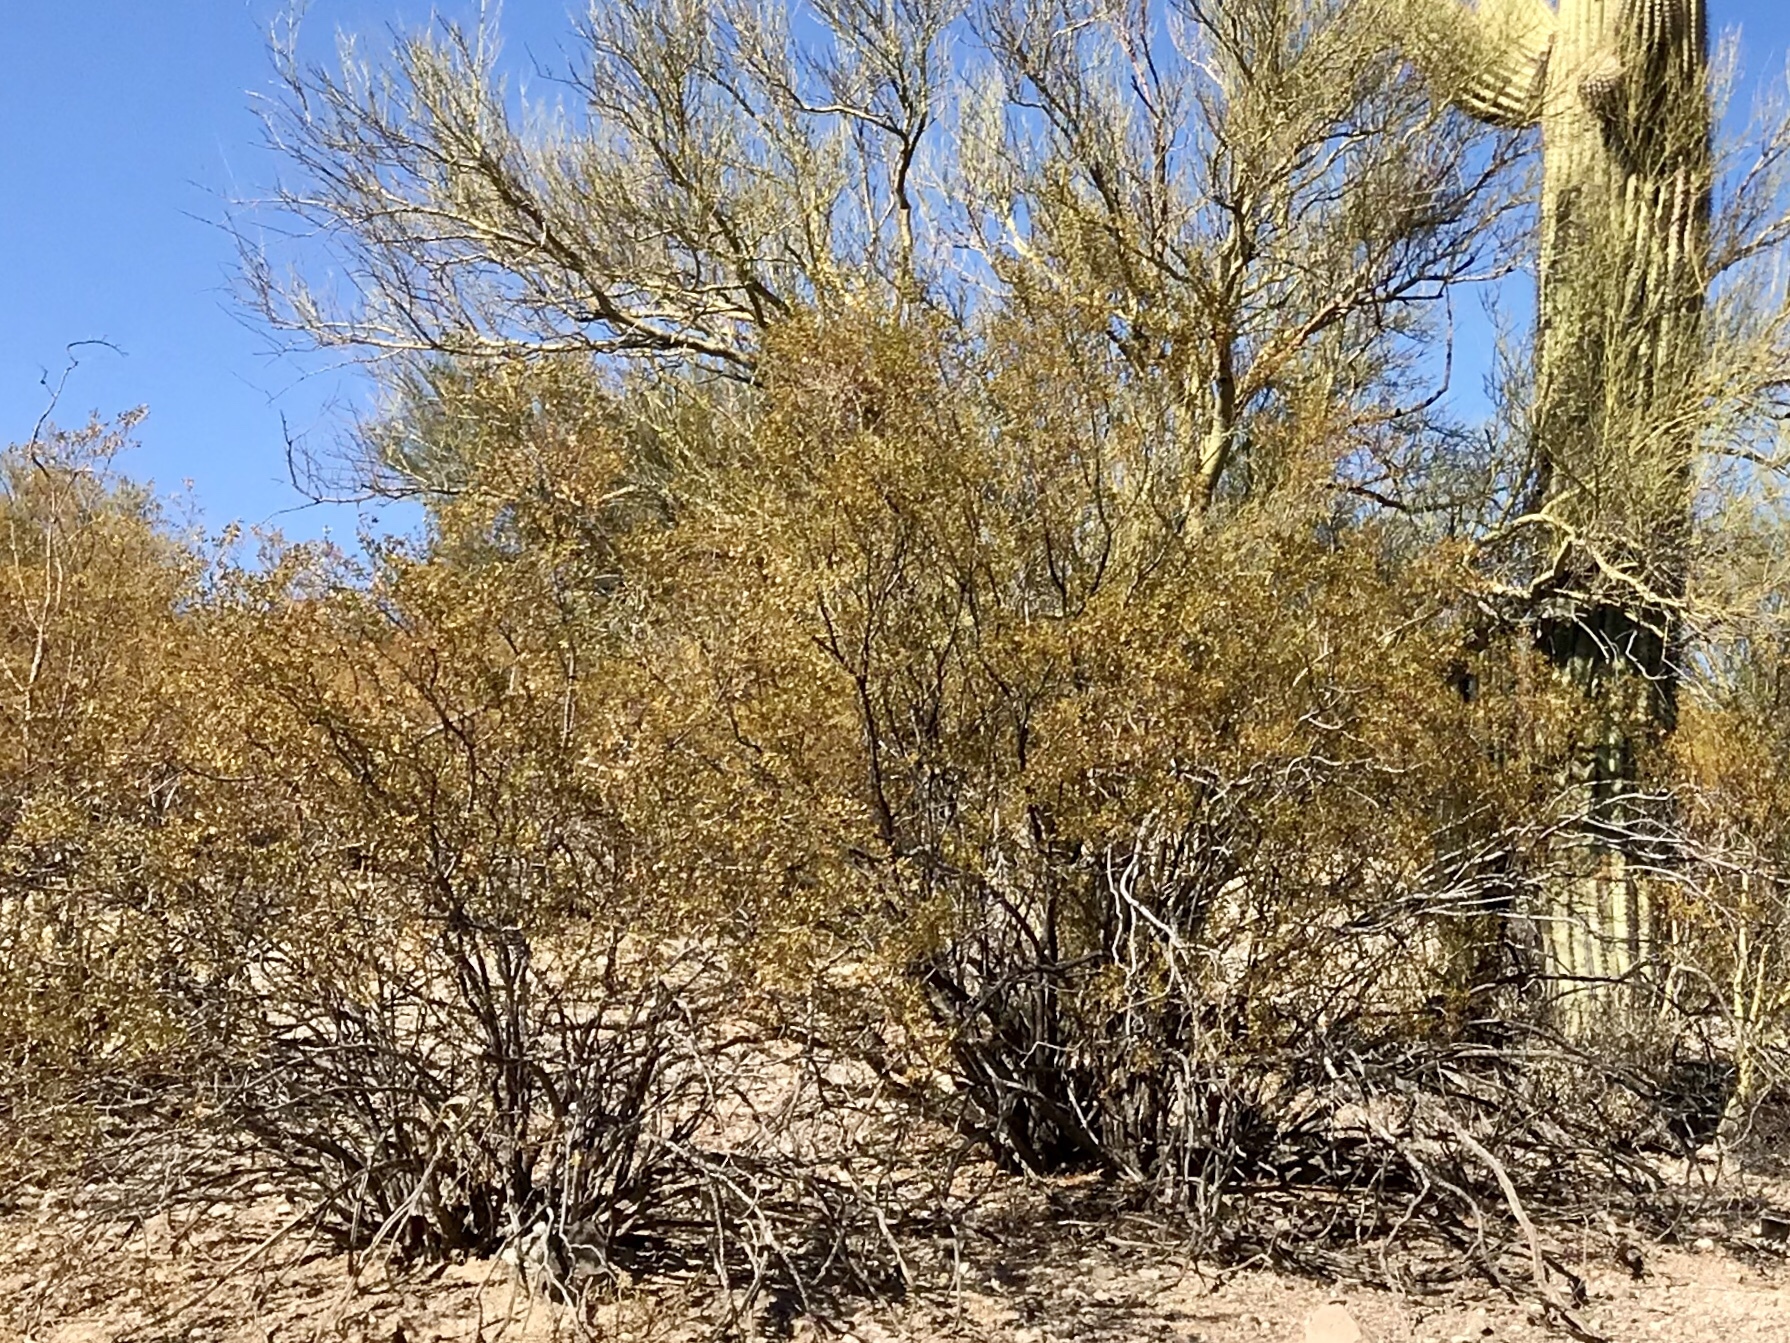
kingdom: Plantae
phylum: Tracheophyta
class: Magnoliopsida
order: Zygophyllales
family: Zygophyllaceae
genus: Larrea
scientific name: Larrea tridentata
